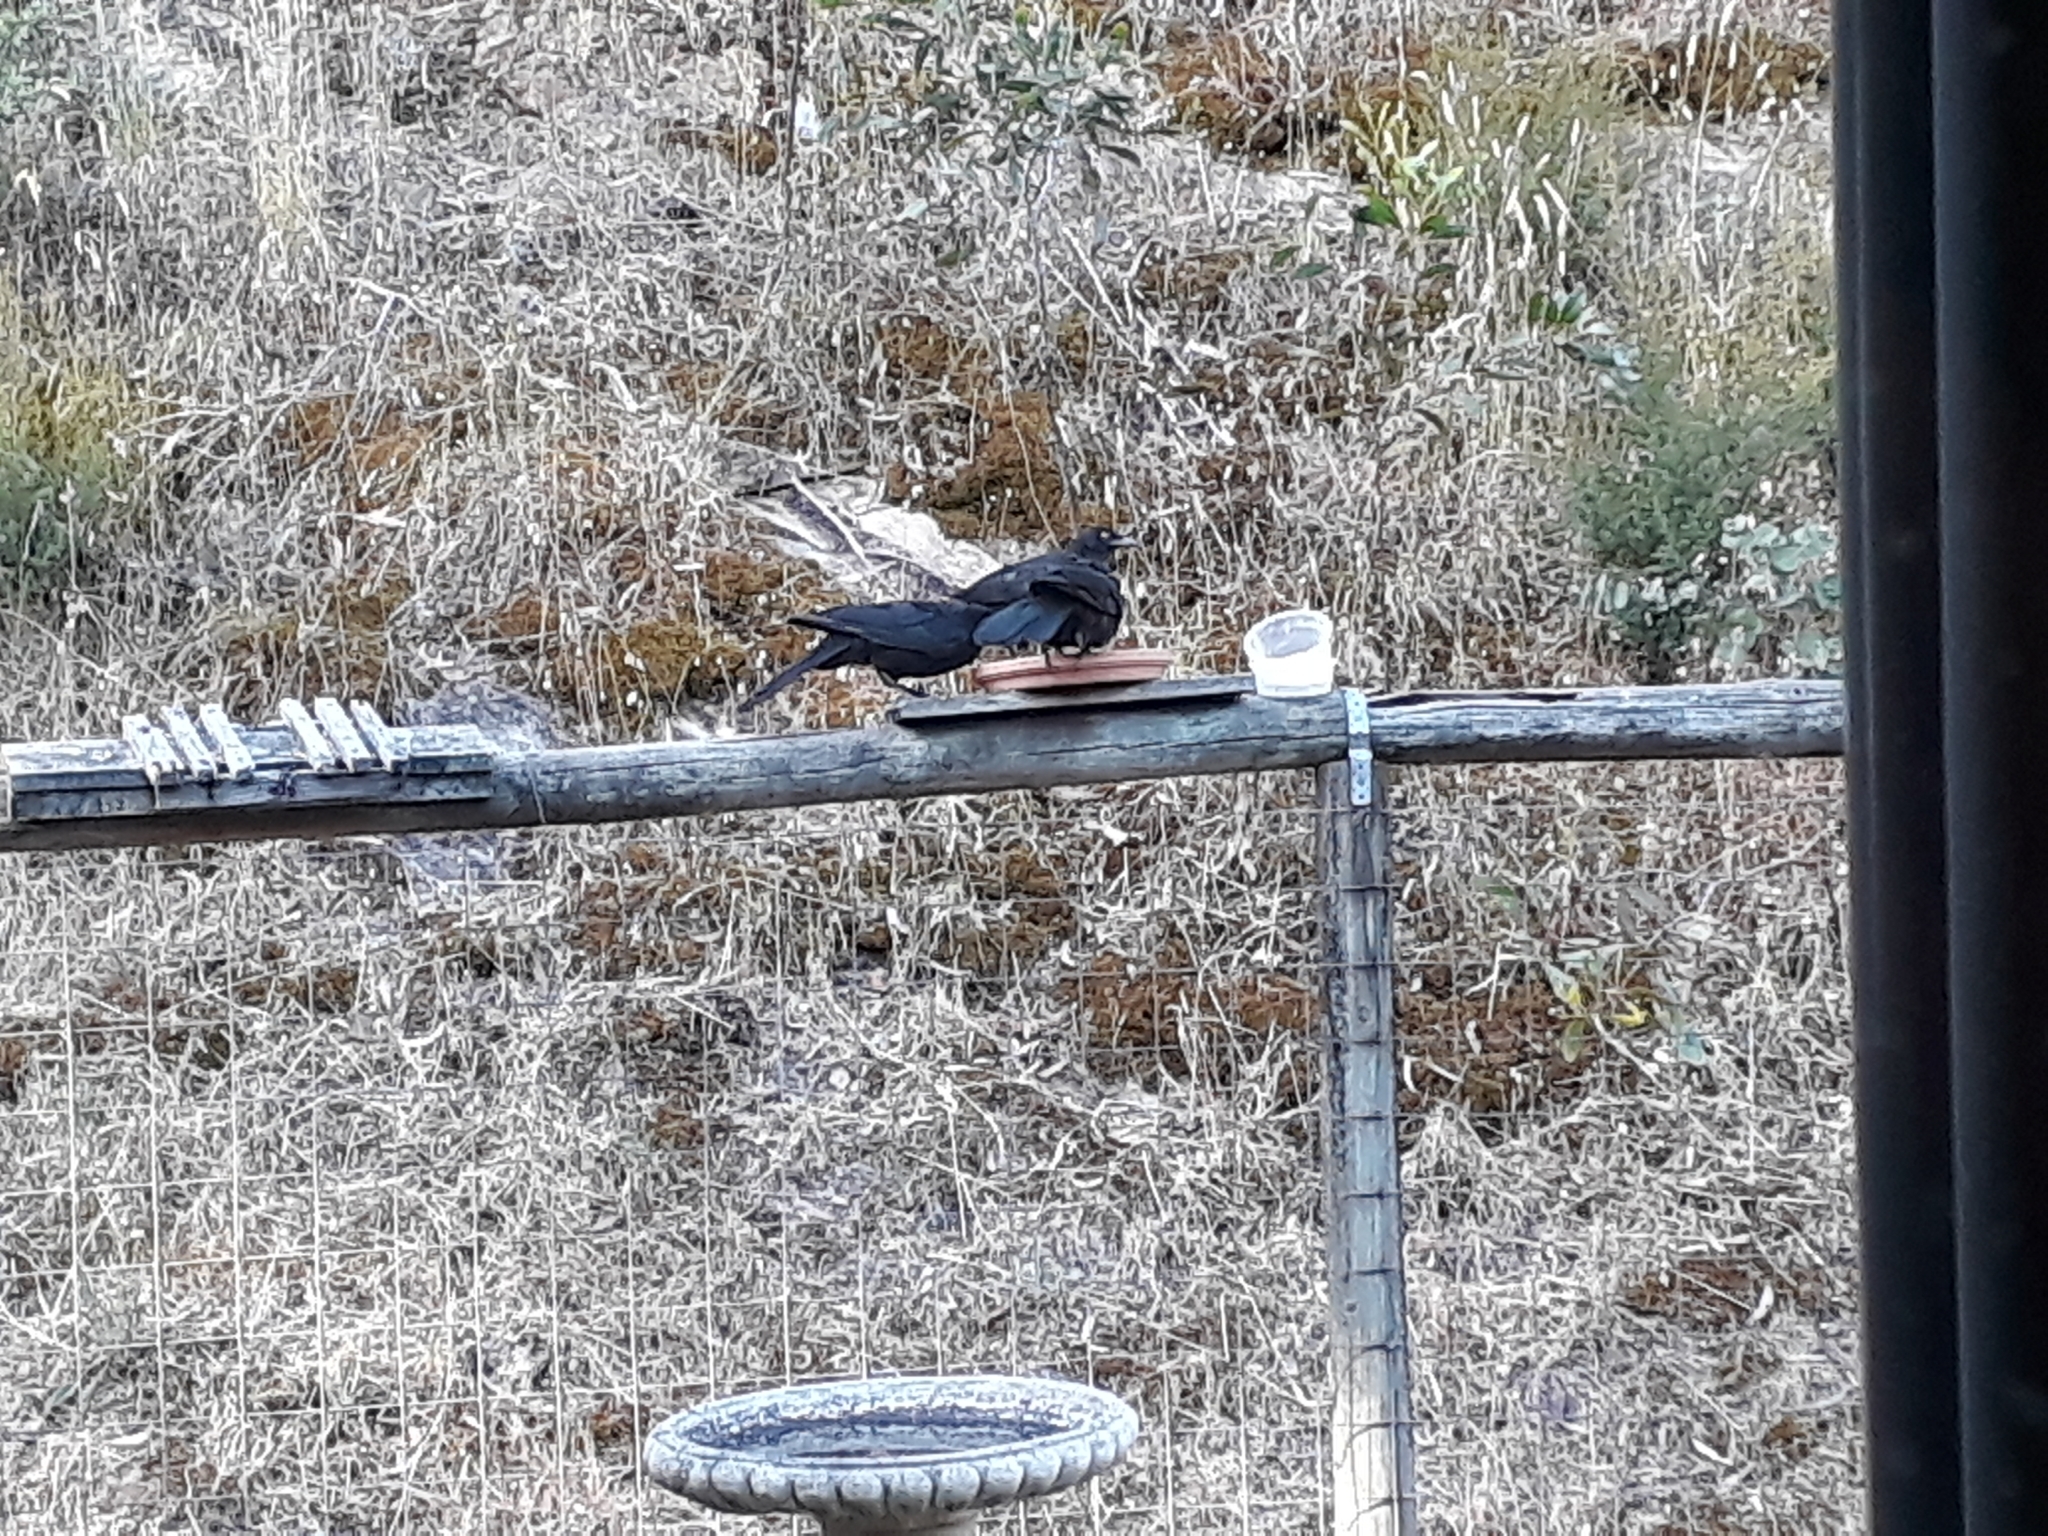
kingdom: Animalia
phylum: Chordata
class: Aves
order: Passeriformes
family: Corcoracidae
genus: Corcorax
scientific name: Corcorax melanoramphos
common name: White-winged chough
